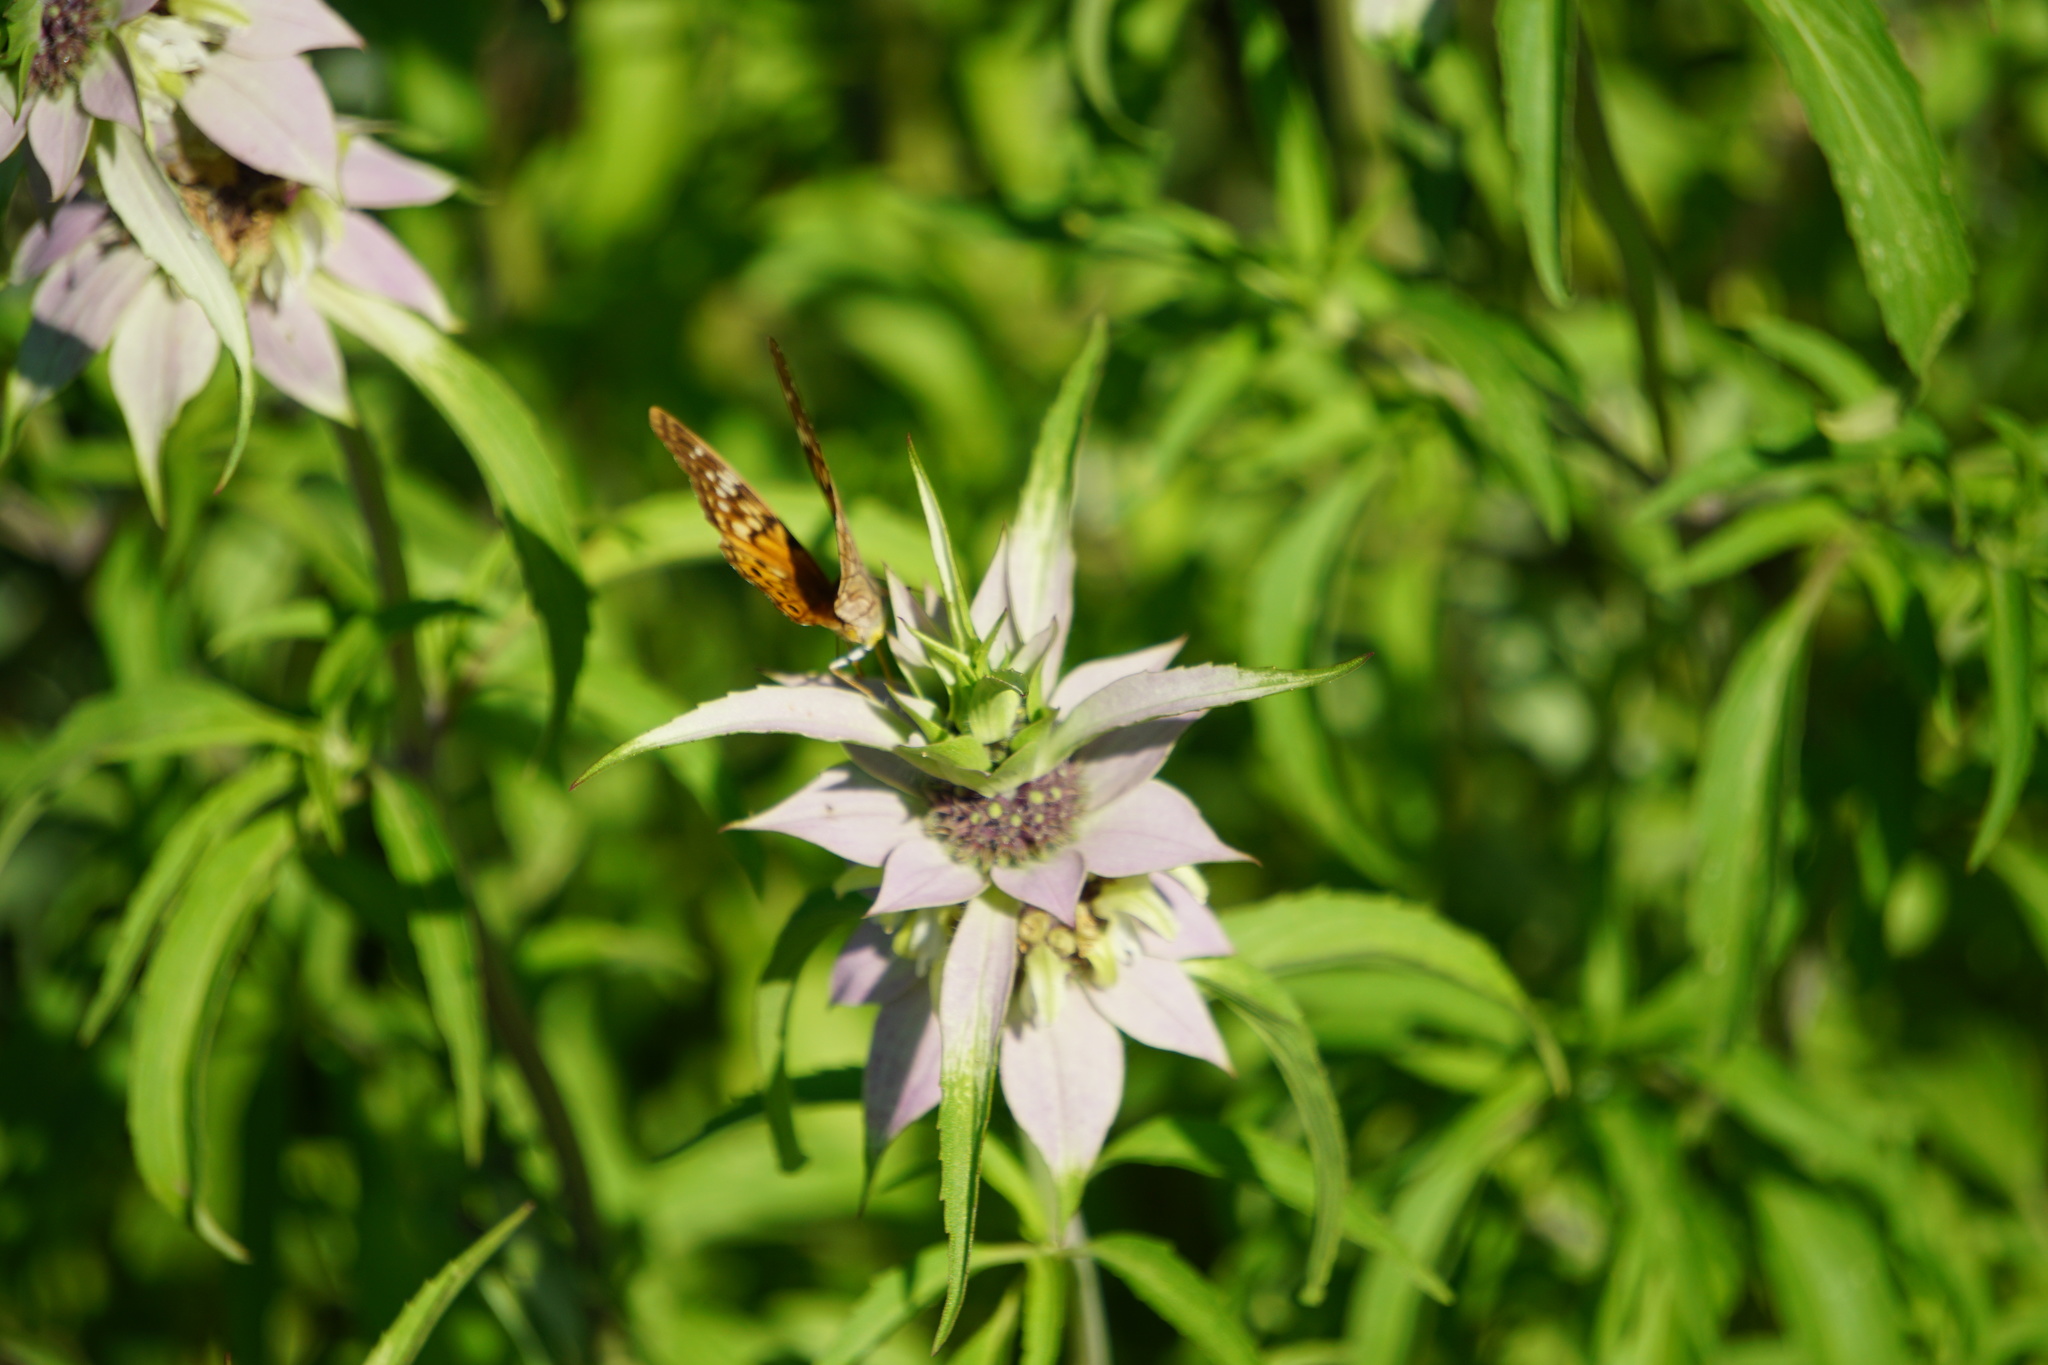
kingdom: Plantae
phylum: Tracheophyta
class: Magnoliopsida
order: Lamiales
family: Lamiaceae
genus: Monarda
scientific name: Monarda punctata
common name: Dotted monarda
